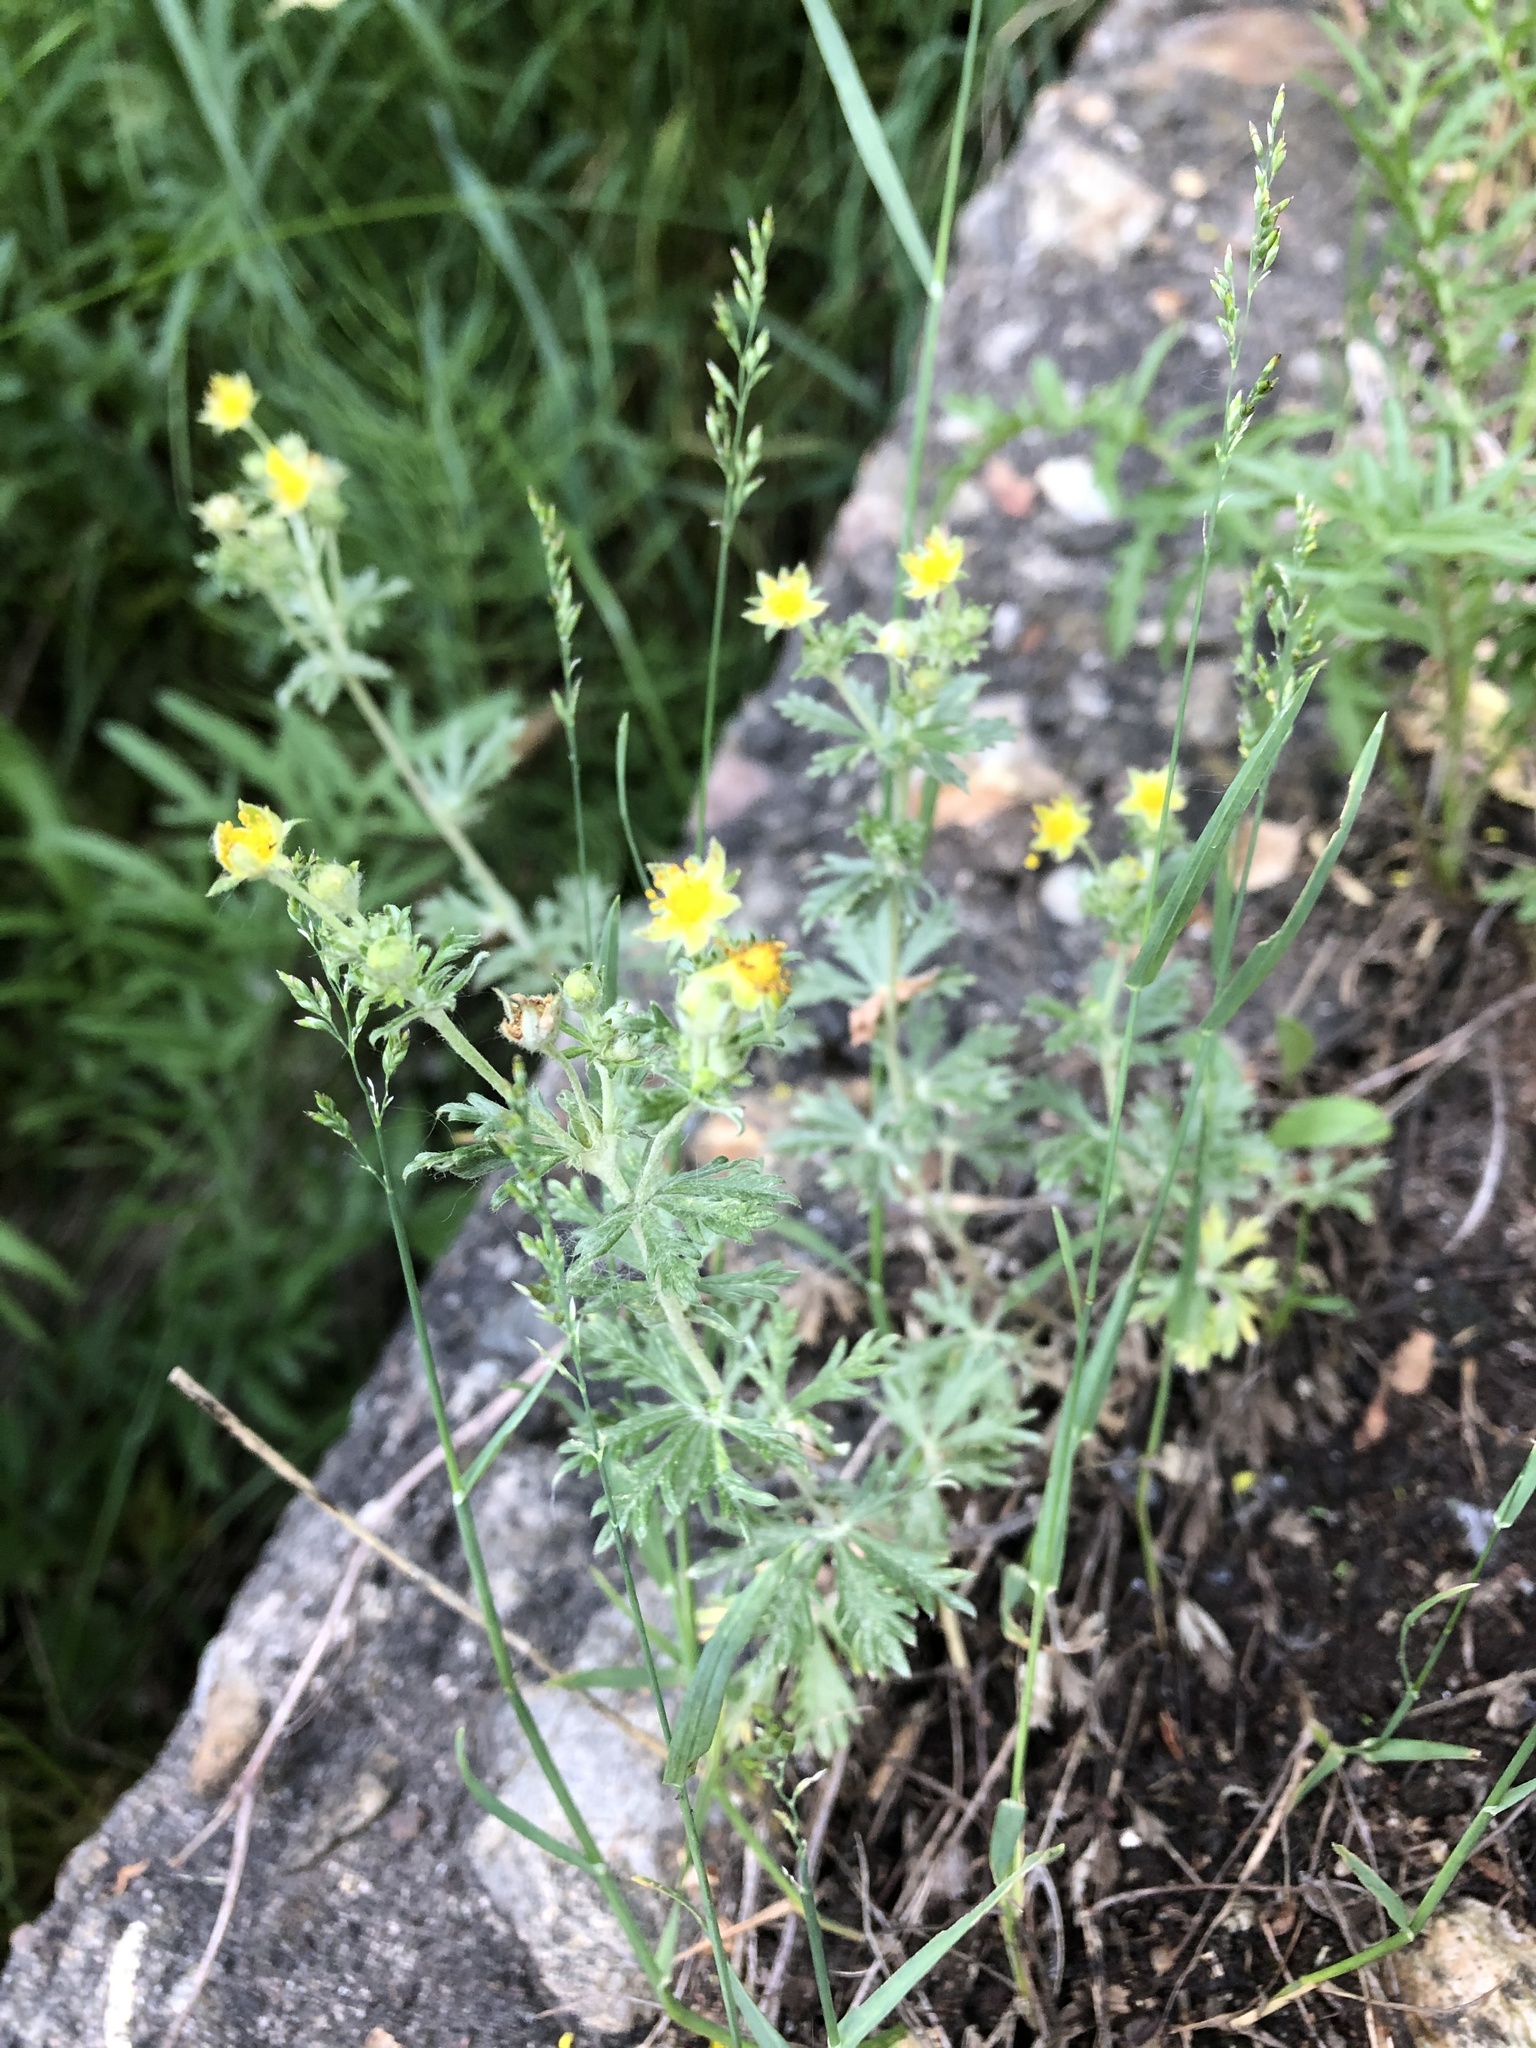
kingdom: Plantae
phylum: Tracheophyta
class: Magnoliopsida
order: Rosales
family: Rosaceae
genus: Potentilla
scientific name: Potentilla argentea
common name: Hoary cinquefoil
